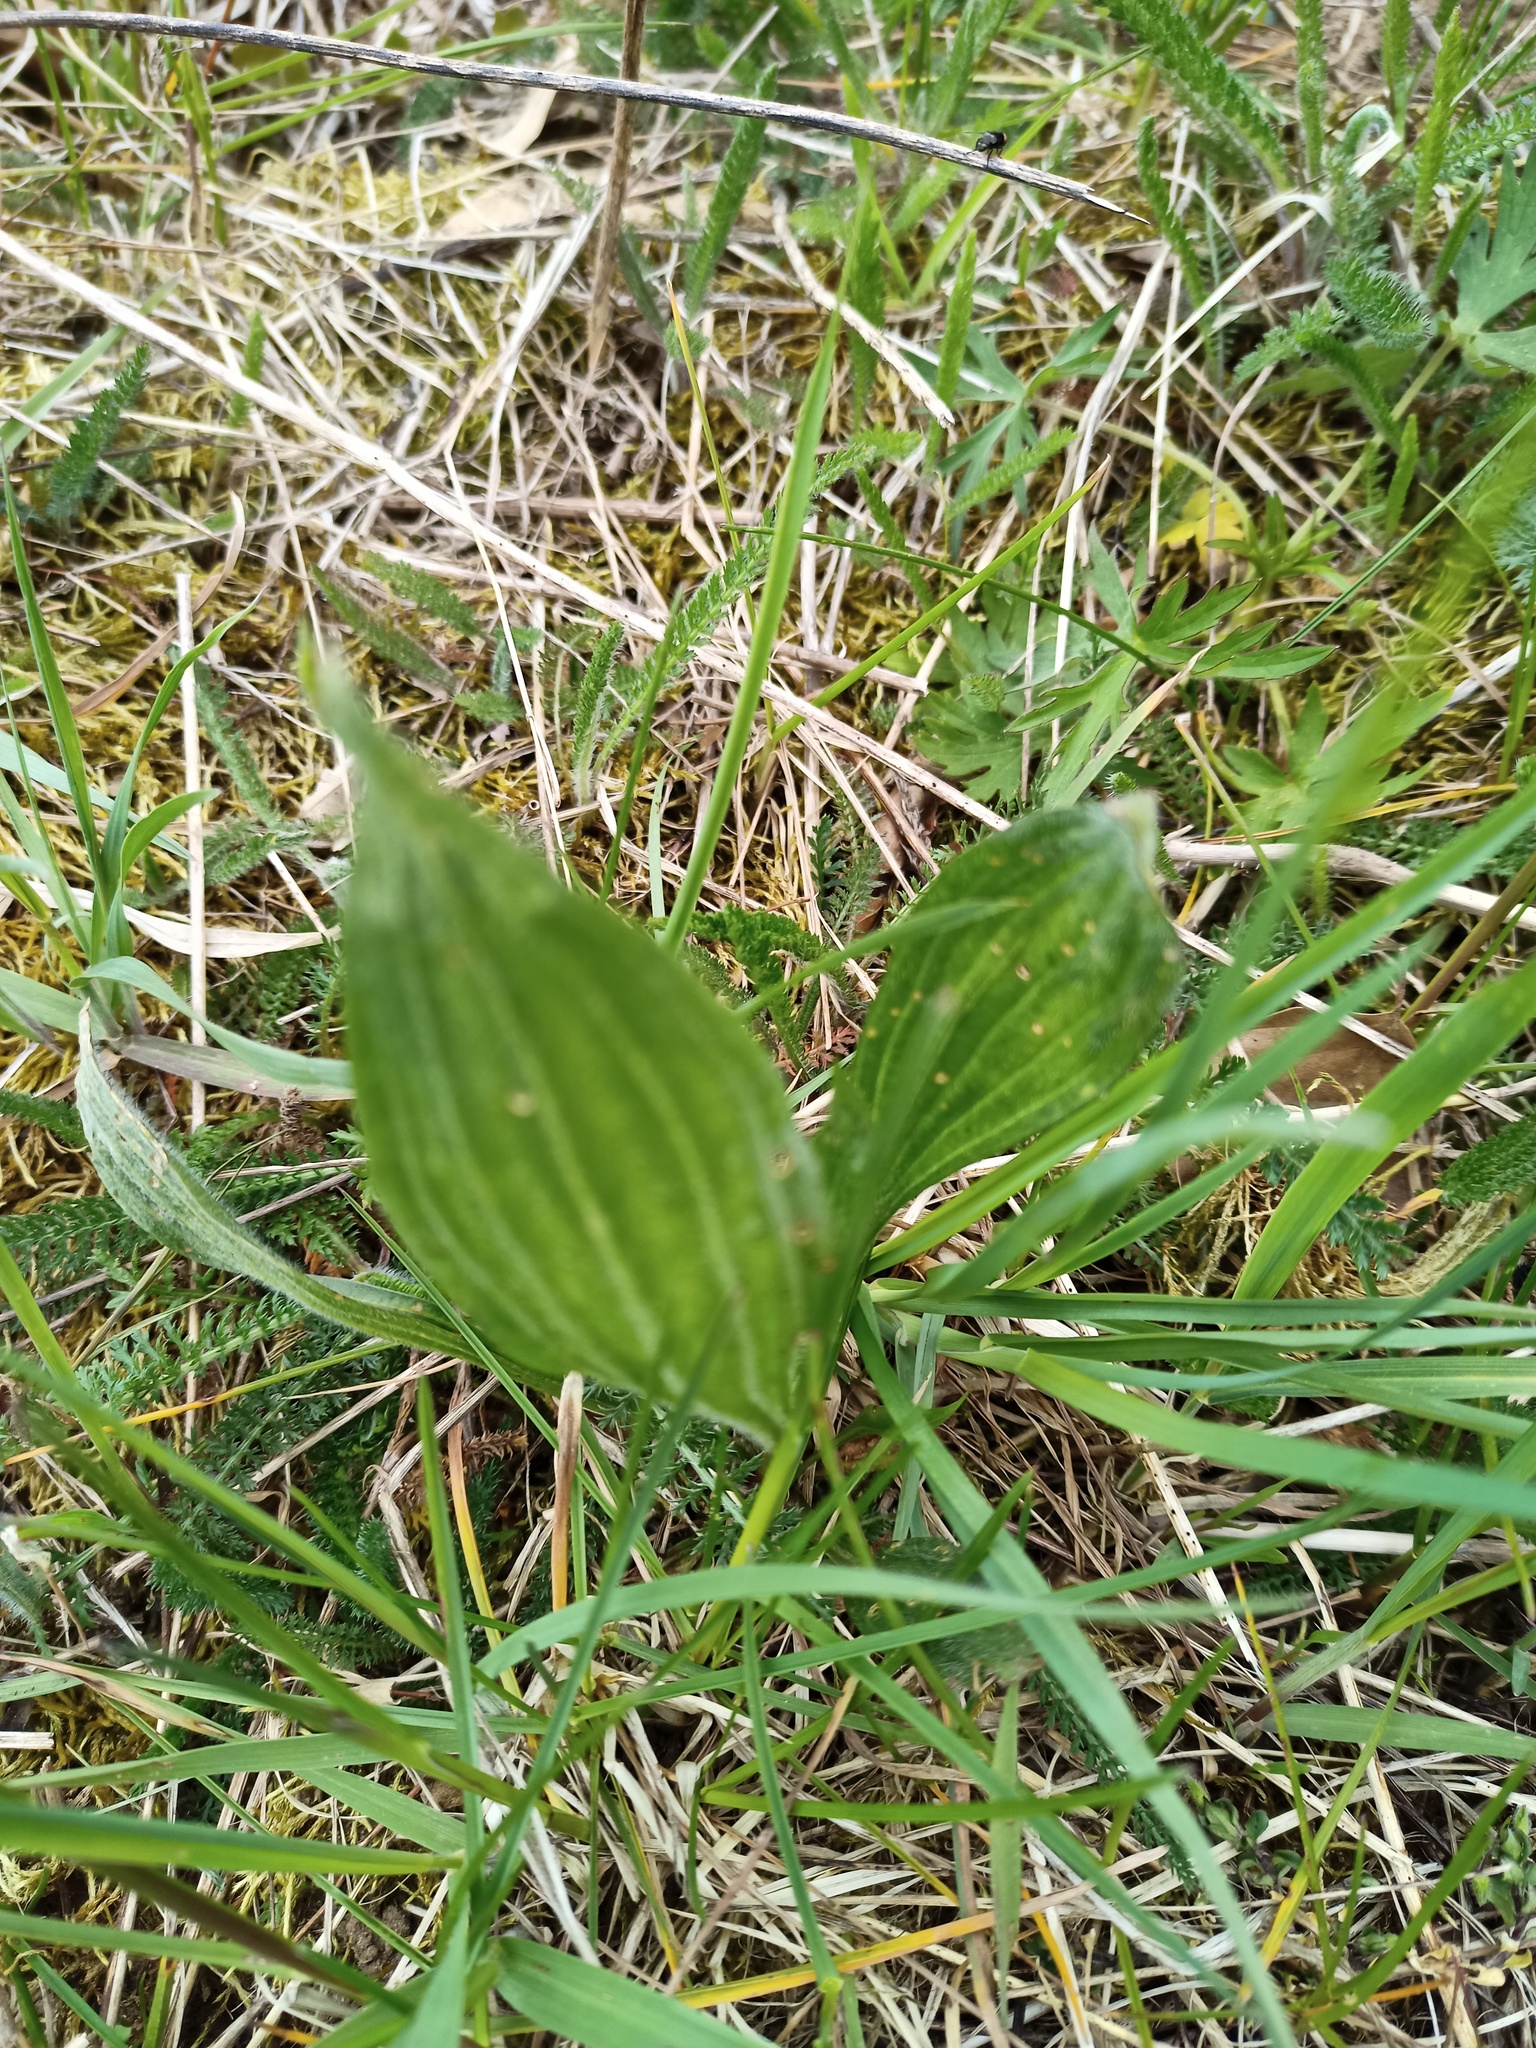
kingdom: Plantae
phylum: Tracheophyta
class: Magnoliopsida
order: Lamiales
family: Plantaginaceae
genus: Plantago
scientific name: Plantago media
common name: Hoary plantain
